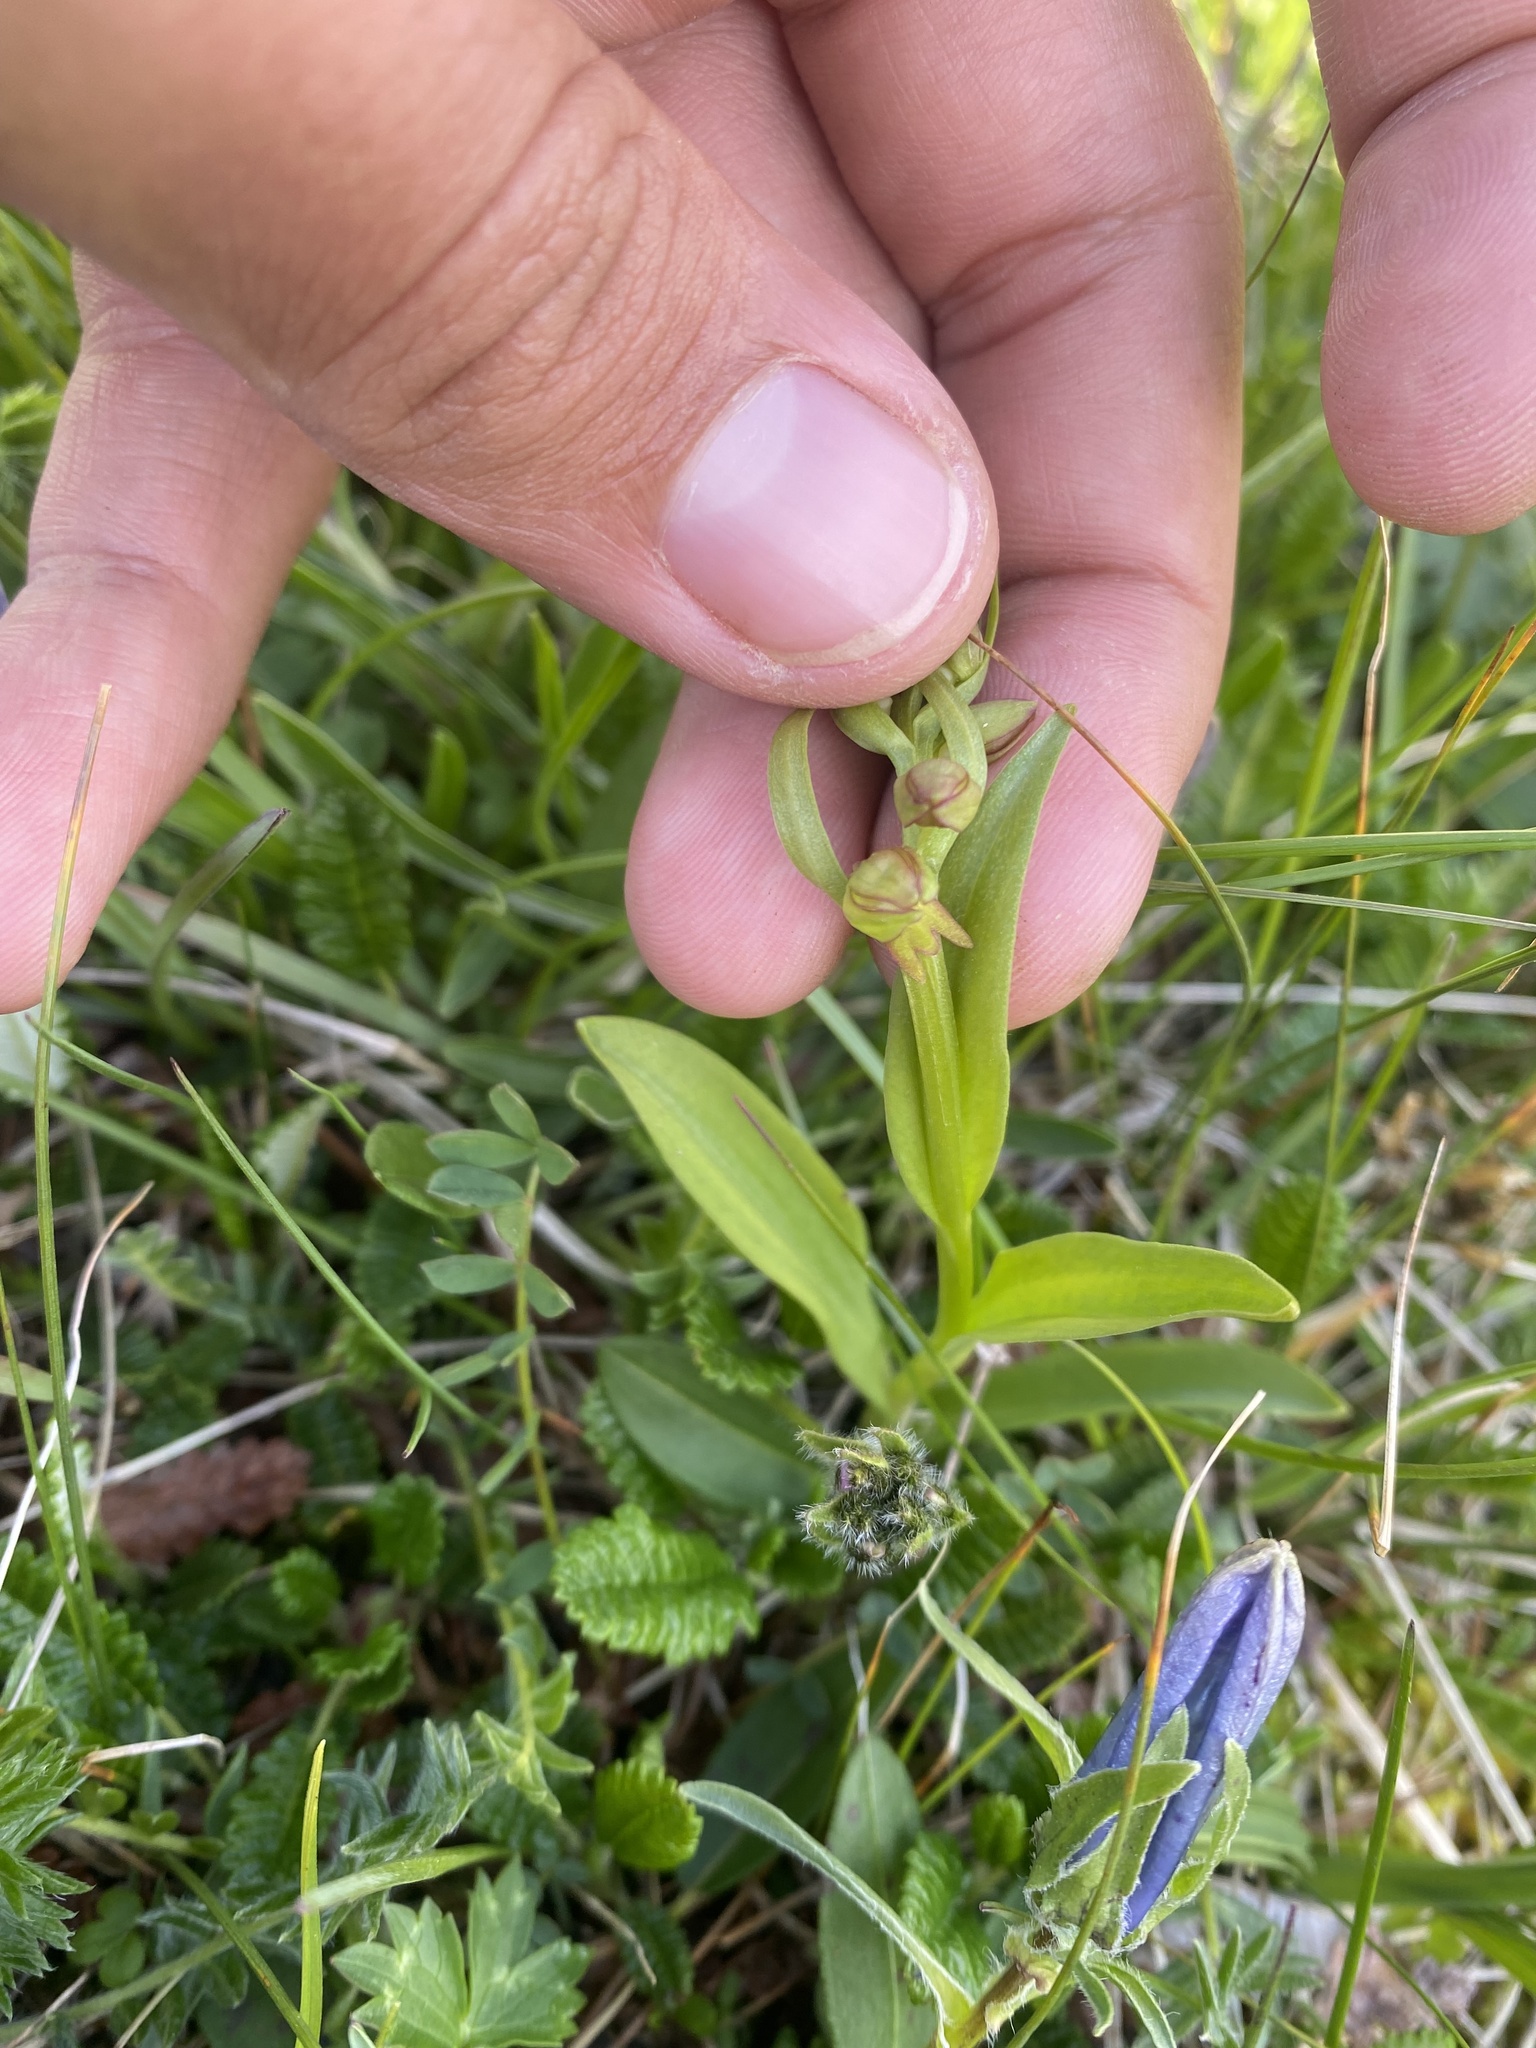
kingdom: Plantae
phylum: Tracheophyta
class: Liliopsida
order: Asparagales
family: Orchidaceae
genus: Dactylorhiza
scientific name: Dactylorhiza viridis
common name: Longbract frog orchid
